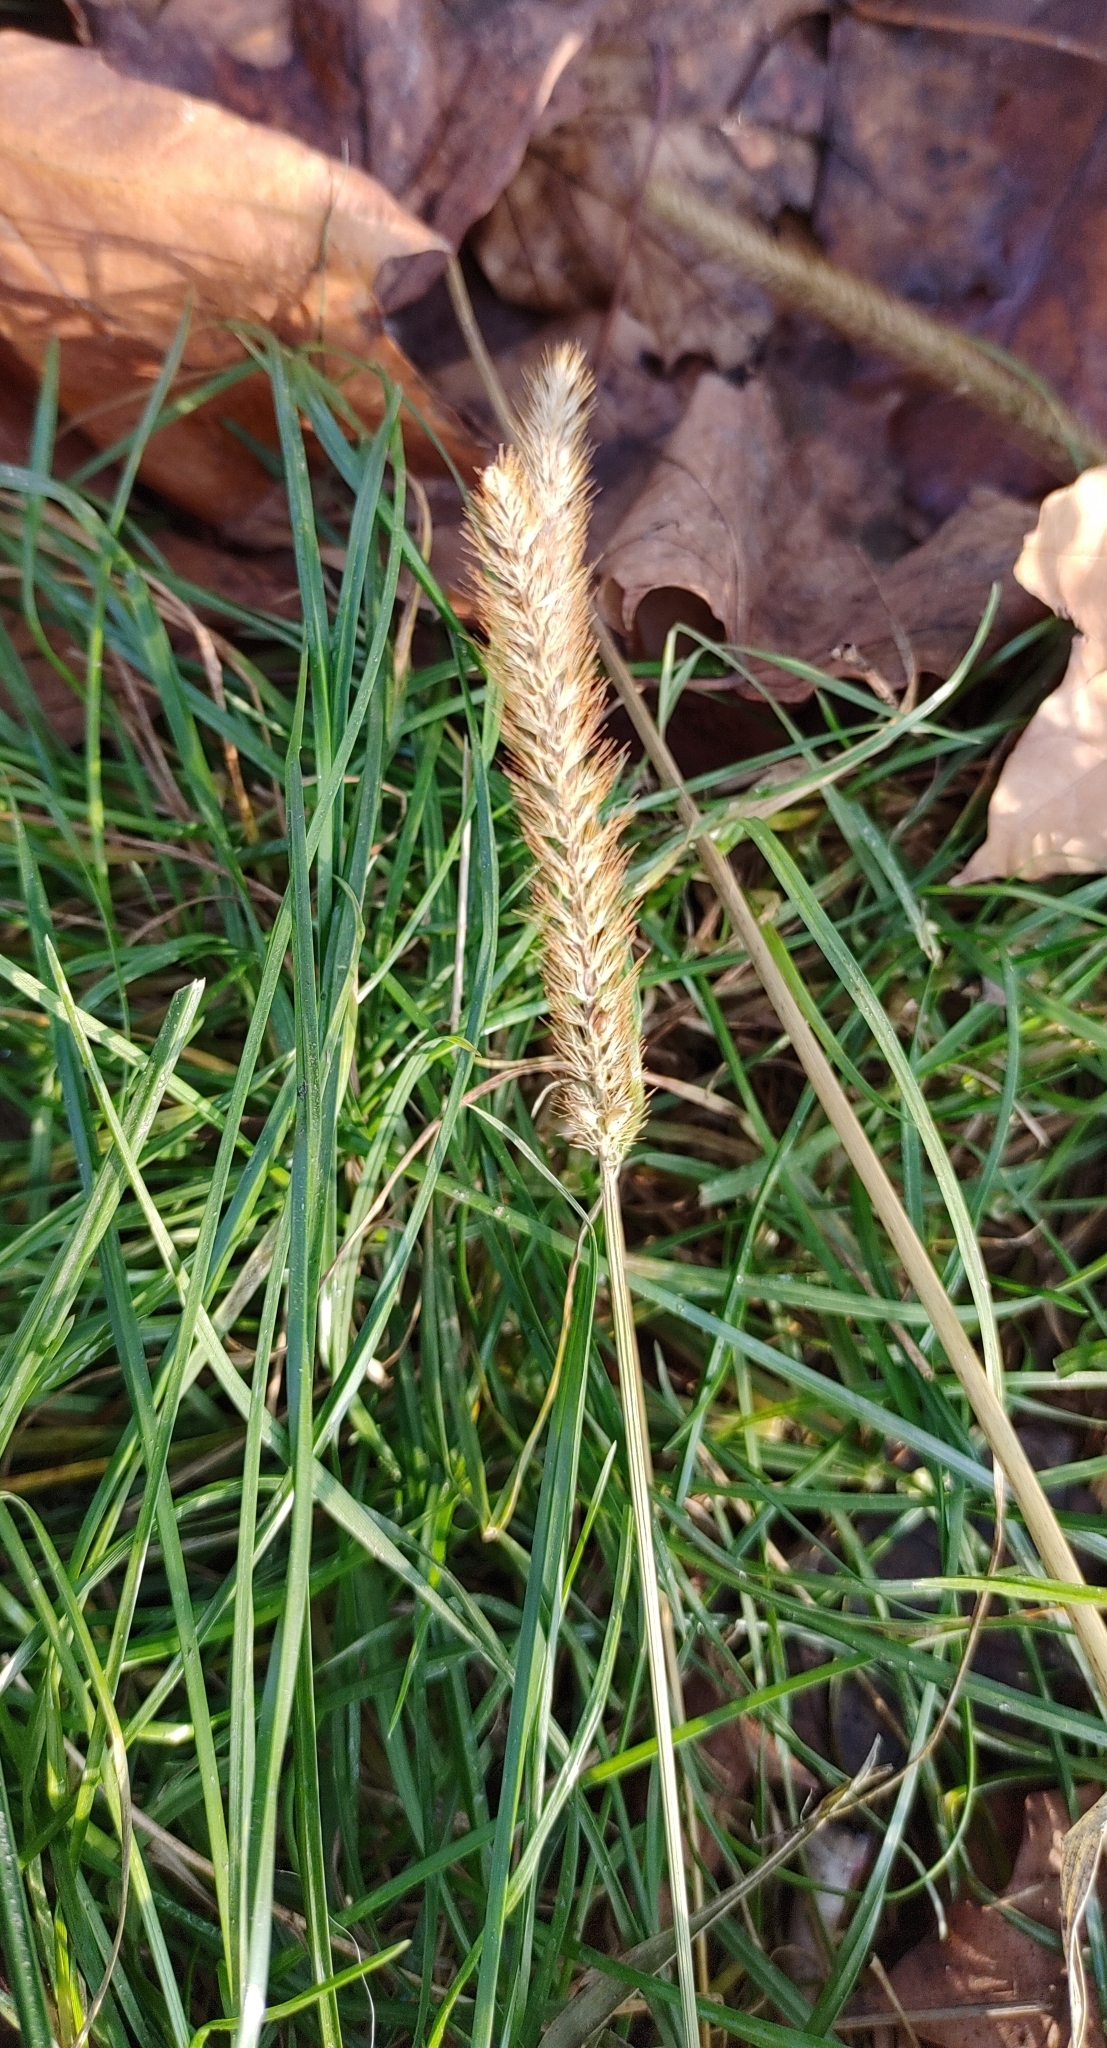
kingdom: Plantae
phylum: Tracheophyta
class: Liliopsida
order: Poales
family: Poaceae
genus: Setaria
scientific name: Setaria pumila
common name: Yellow bristle-grass
